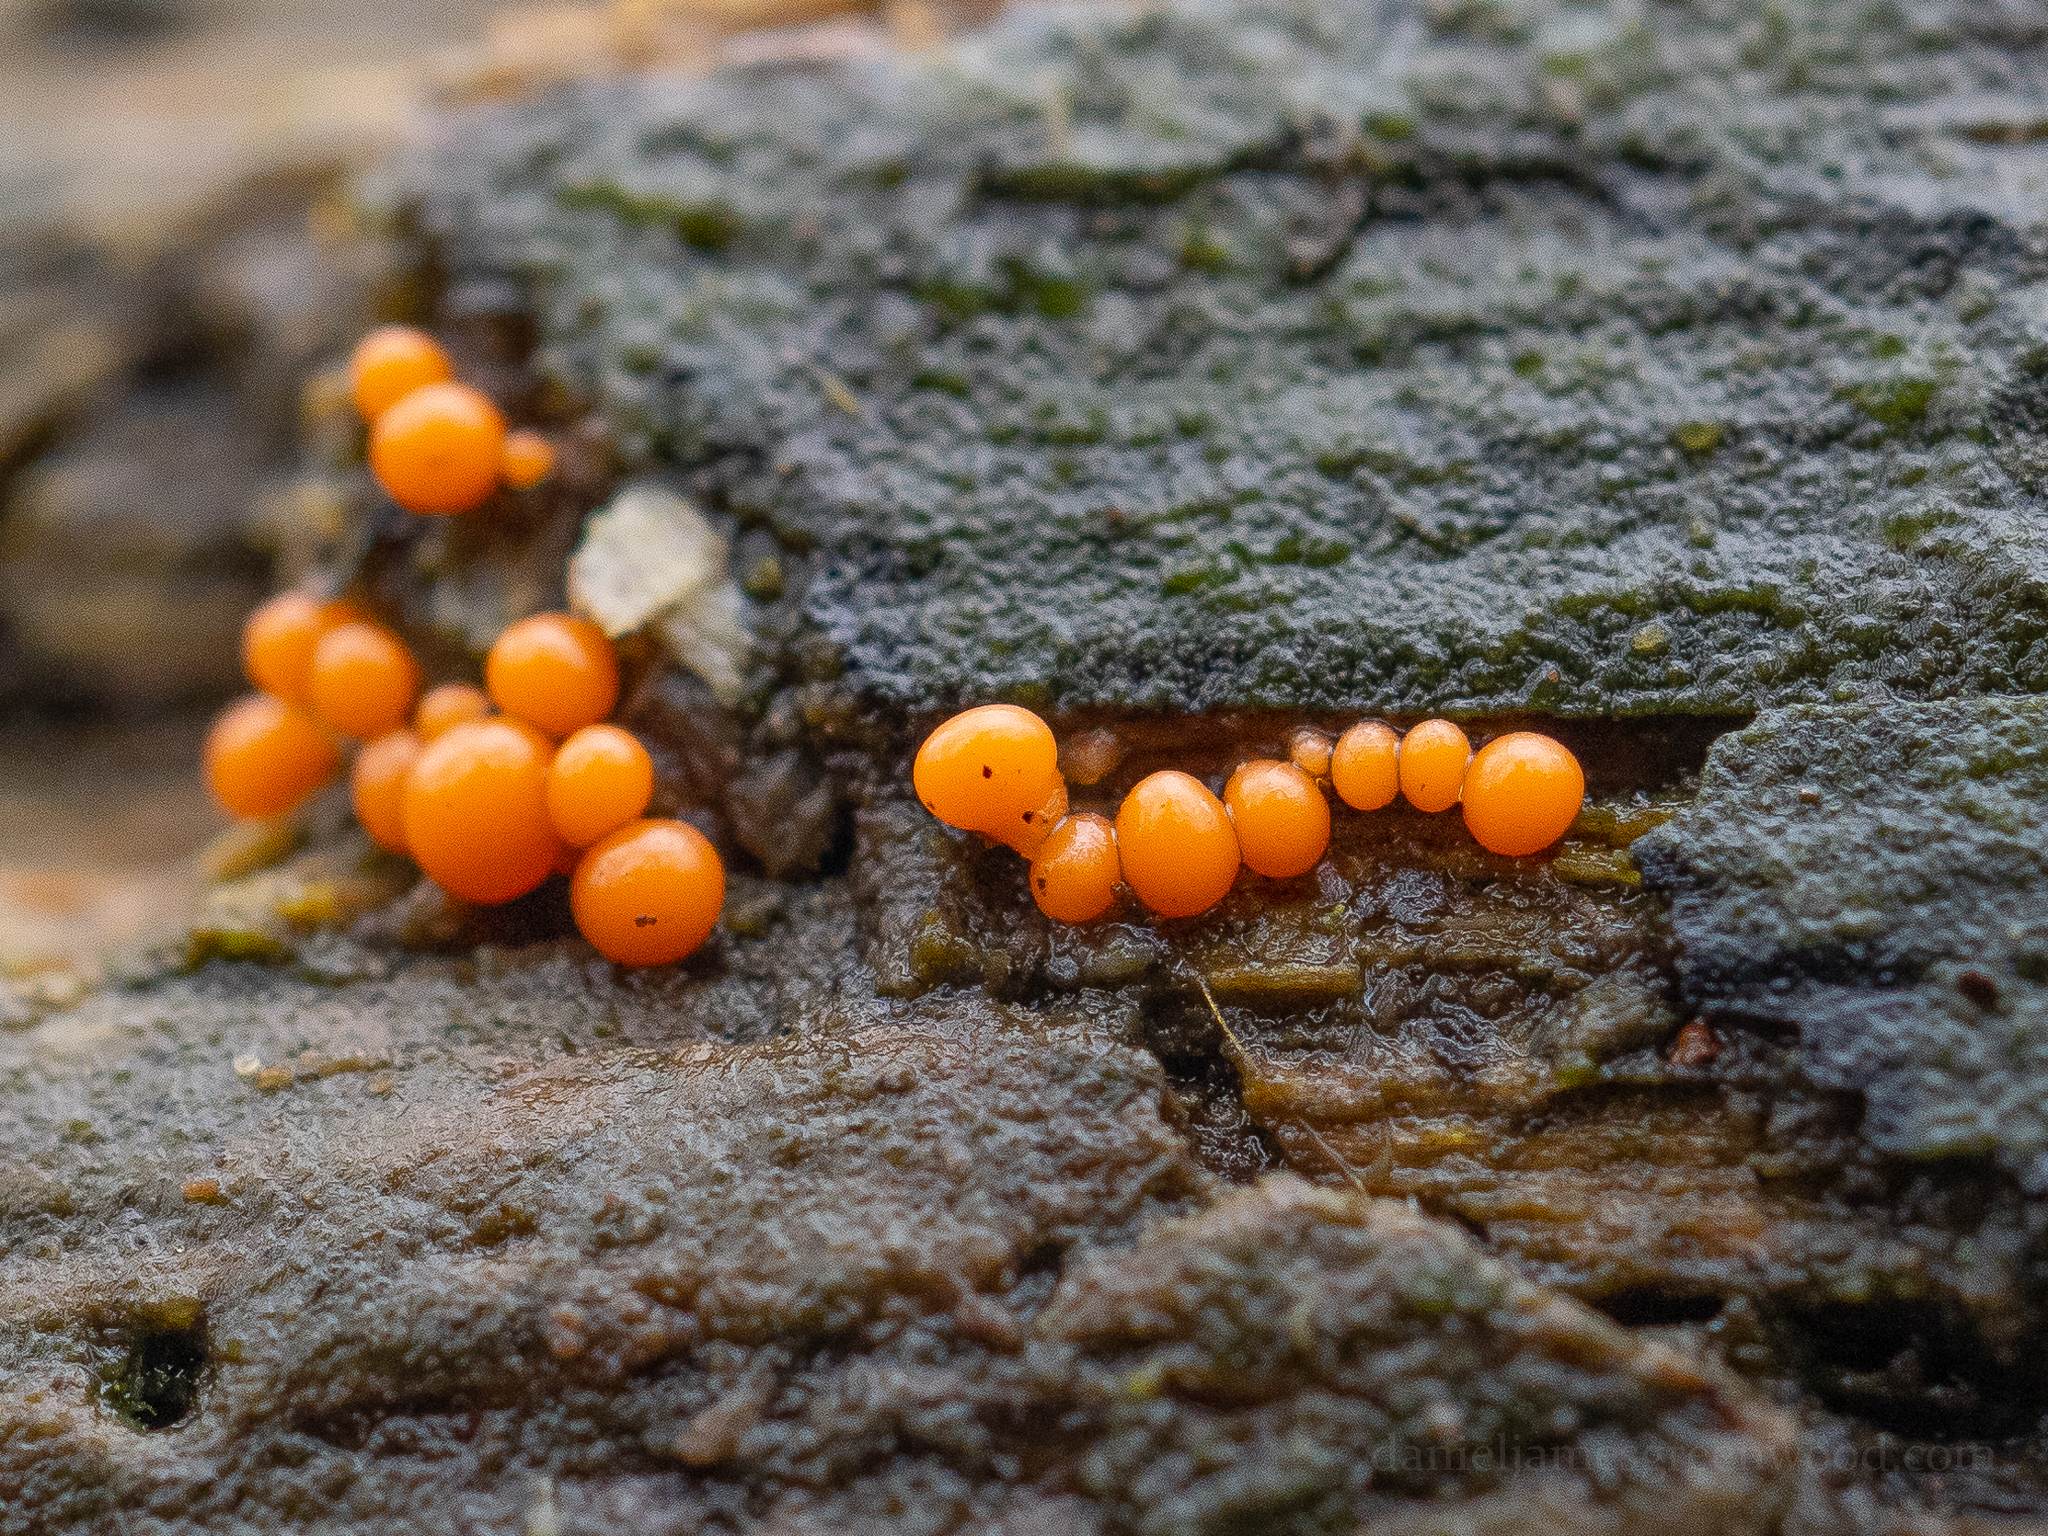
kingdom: Protozoa
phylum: Mycetozoa
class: Myxomycetes
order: Trichiales
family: Arcyriaceae
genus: Hemitrichia
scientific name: Hemitrichia decipiens
